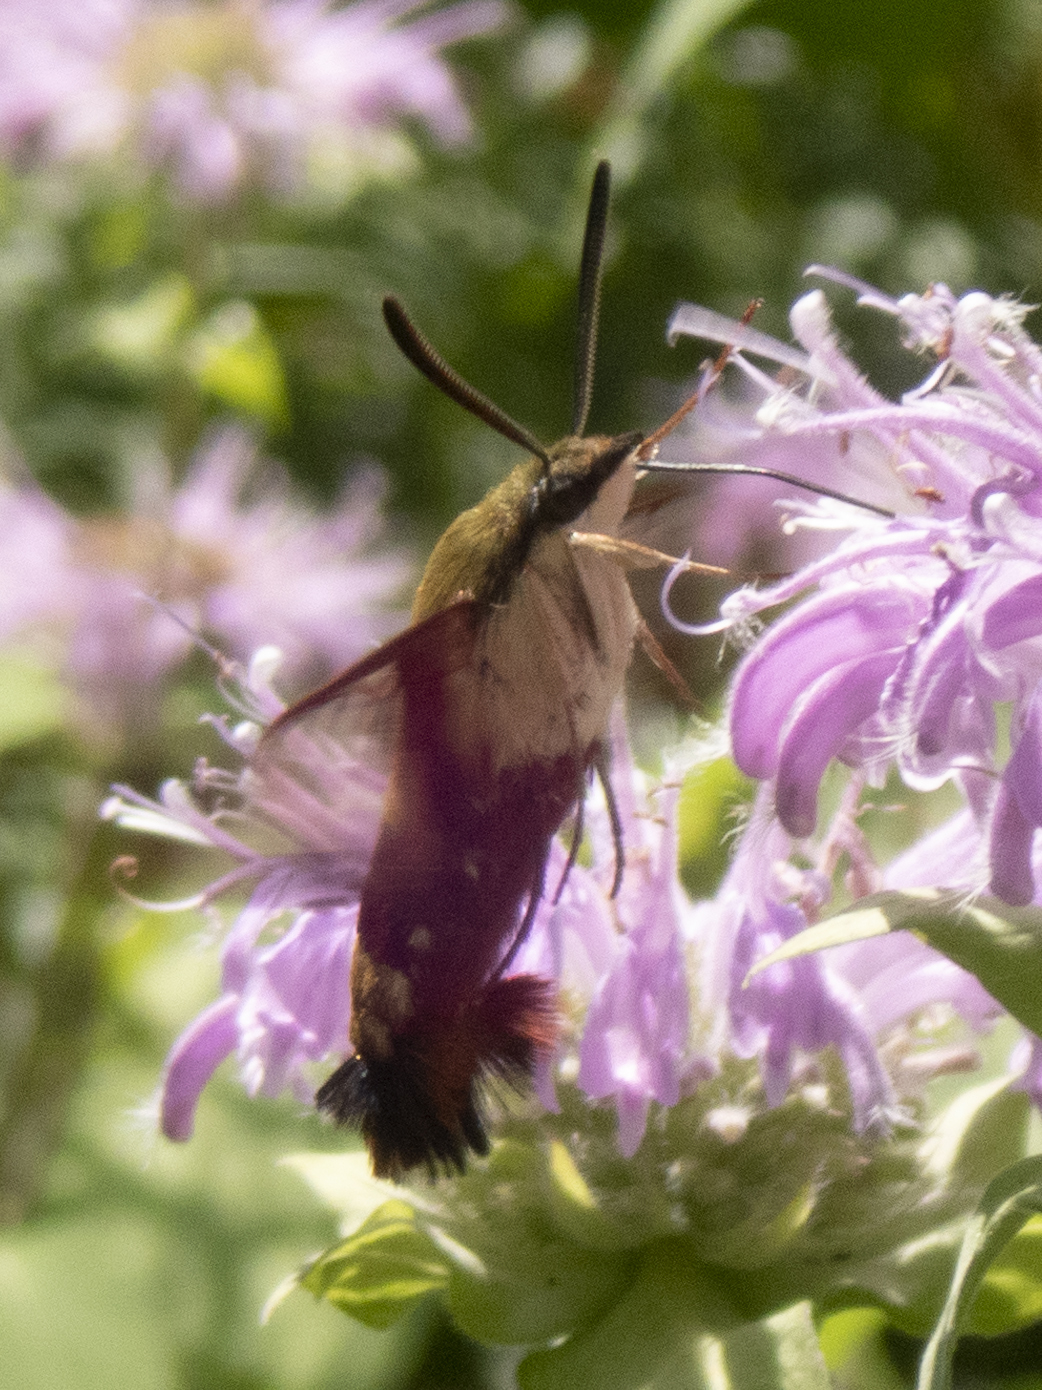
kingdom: Animalia
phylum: Arthropoda
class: Insecta
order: Lepidoptera
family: Sphingidae
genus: Hemaris
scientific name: Hemaris thysbe
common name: Common clear-wing
